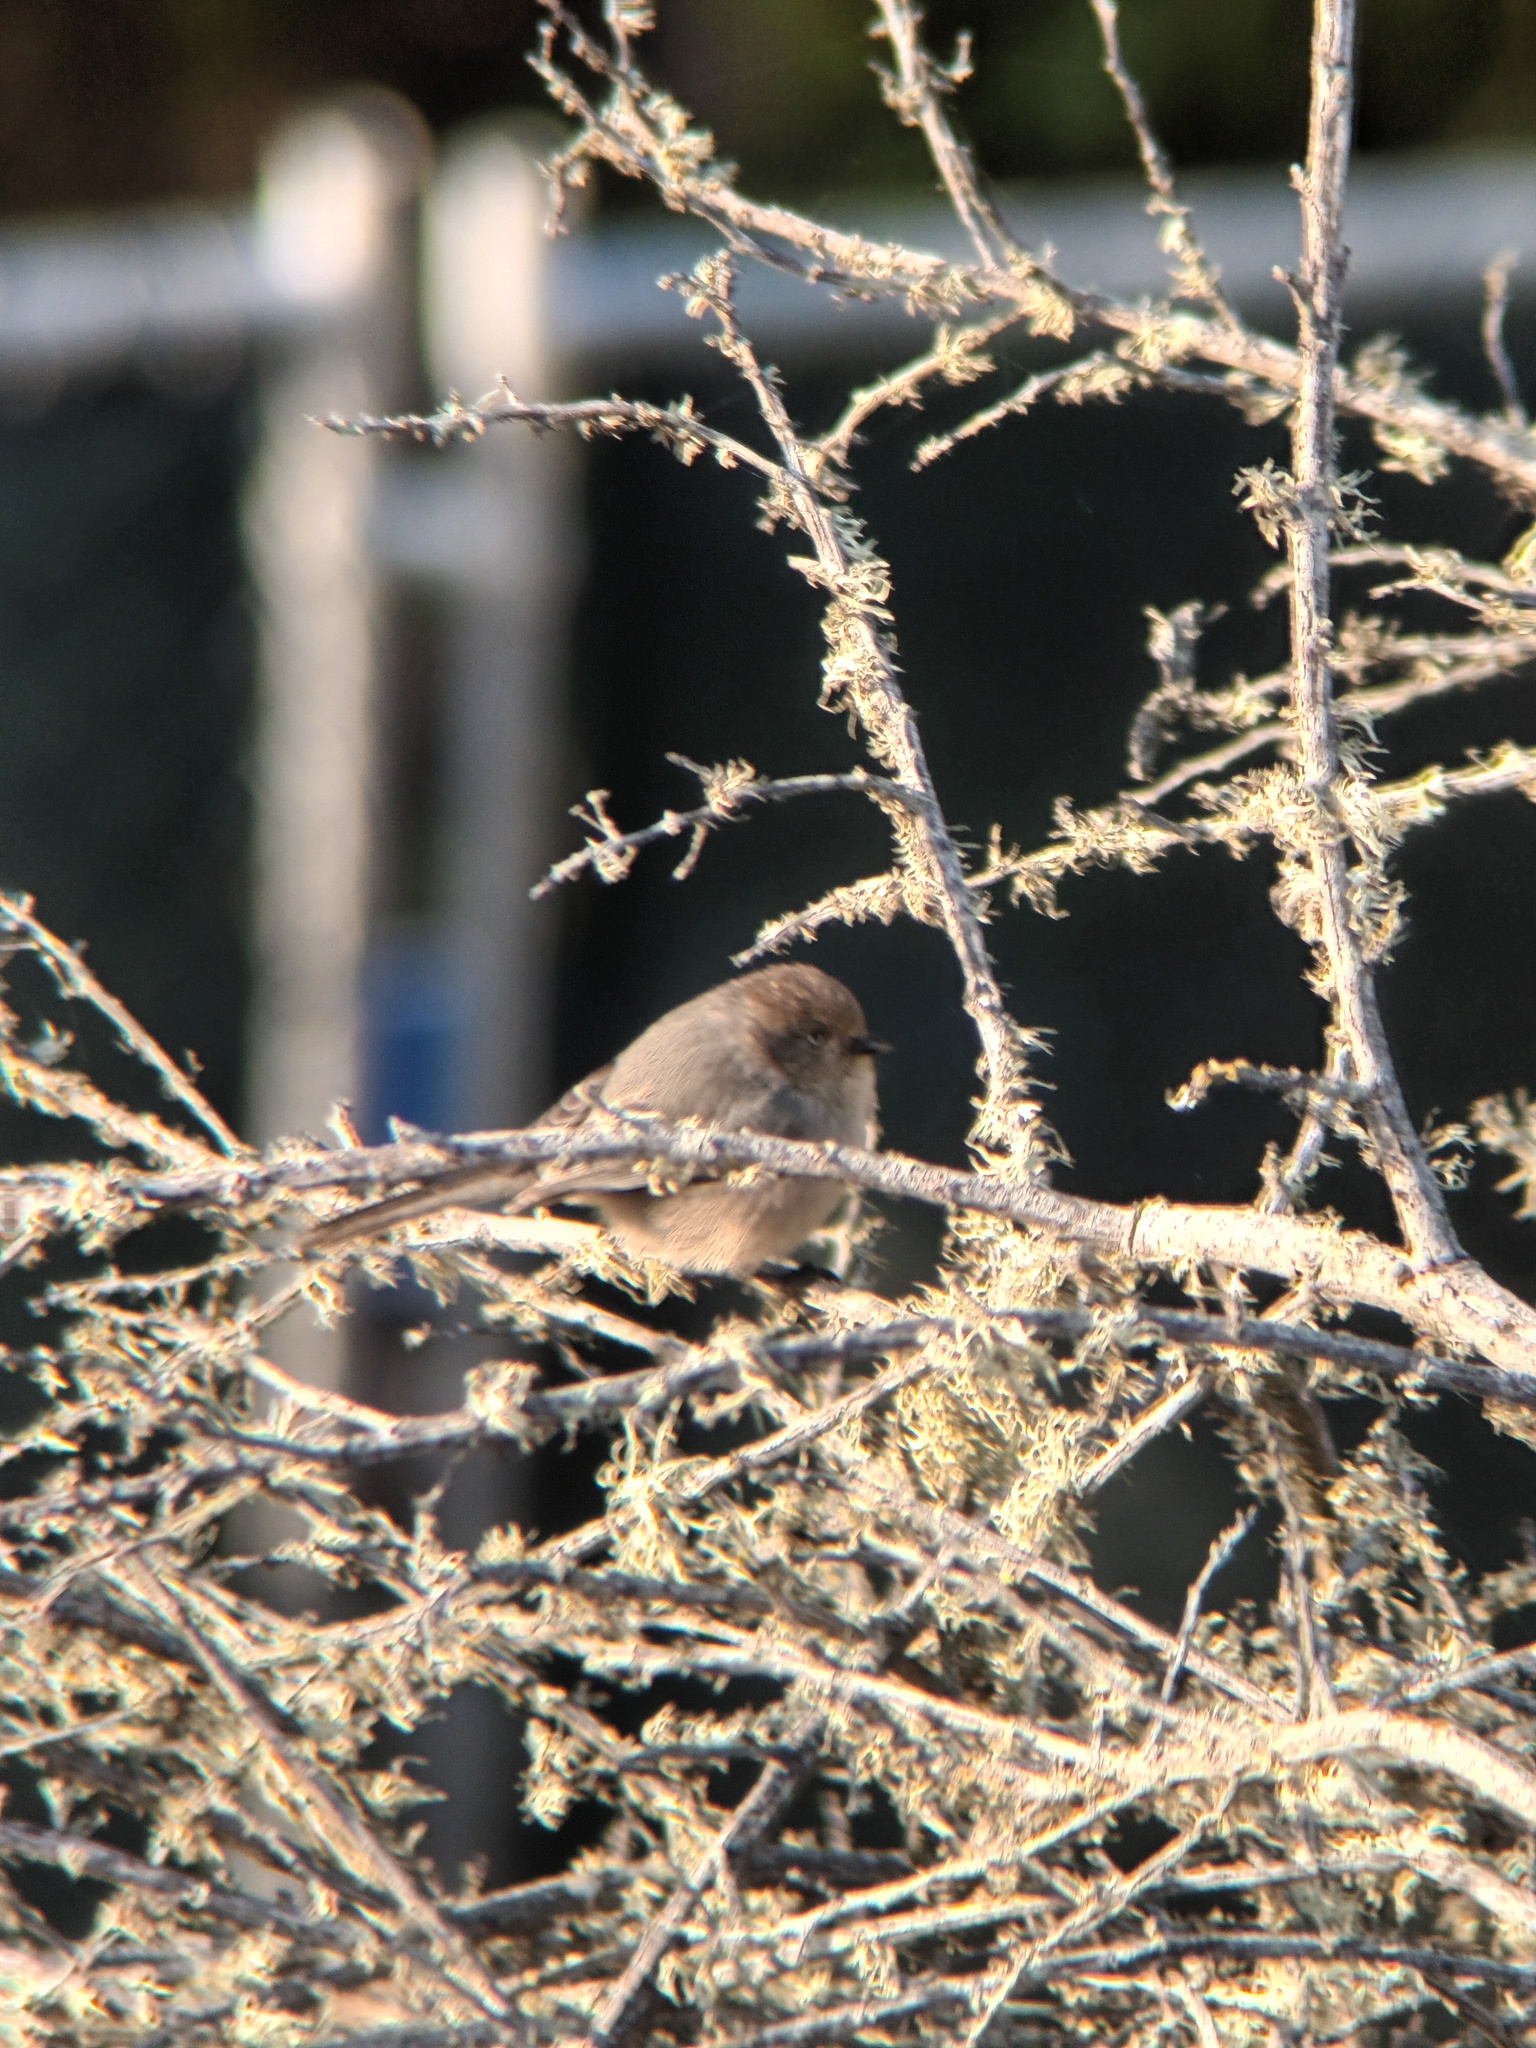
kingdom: Animalia
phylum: Chordata
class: Aves
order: Passeriformes
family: Aegithalidae
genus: Psaltriparus
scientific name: Psaltriparus minimus
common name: American bushtit
